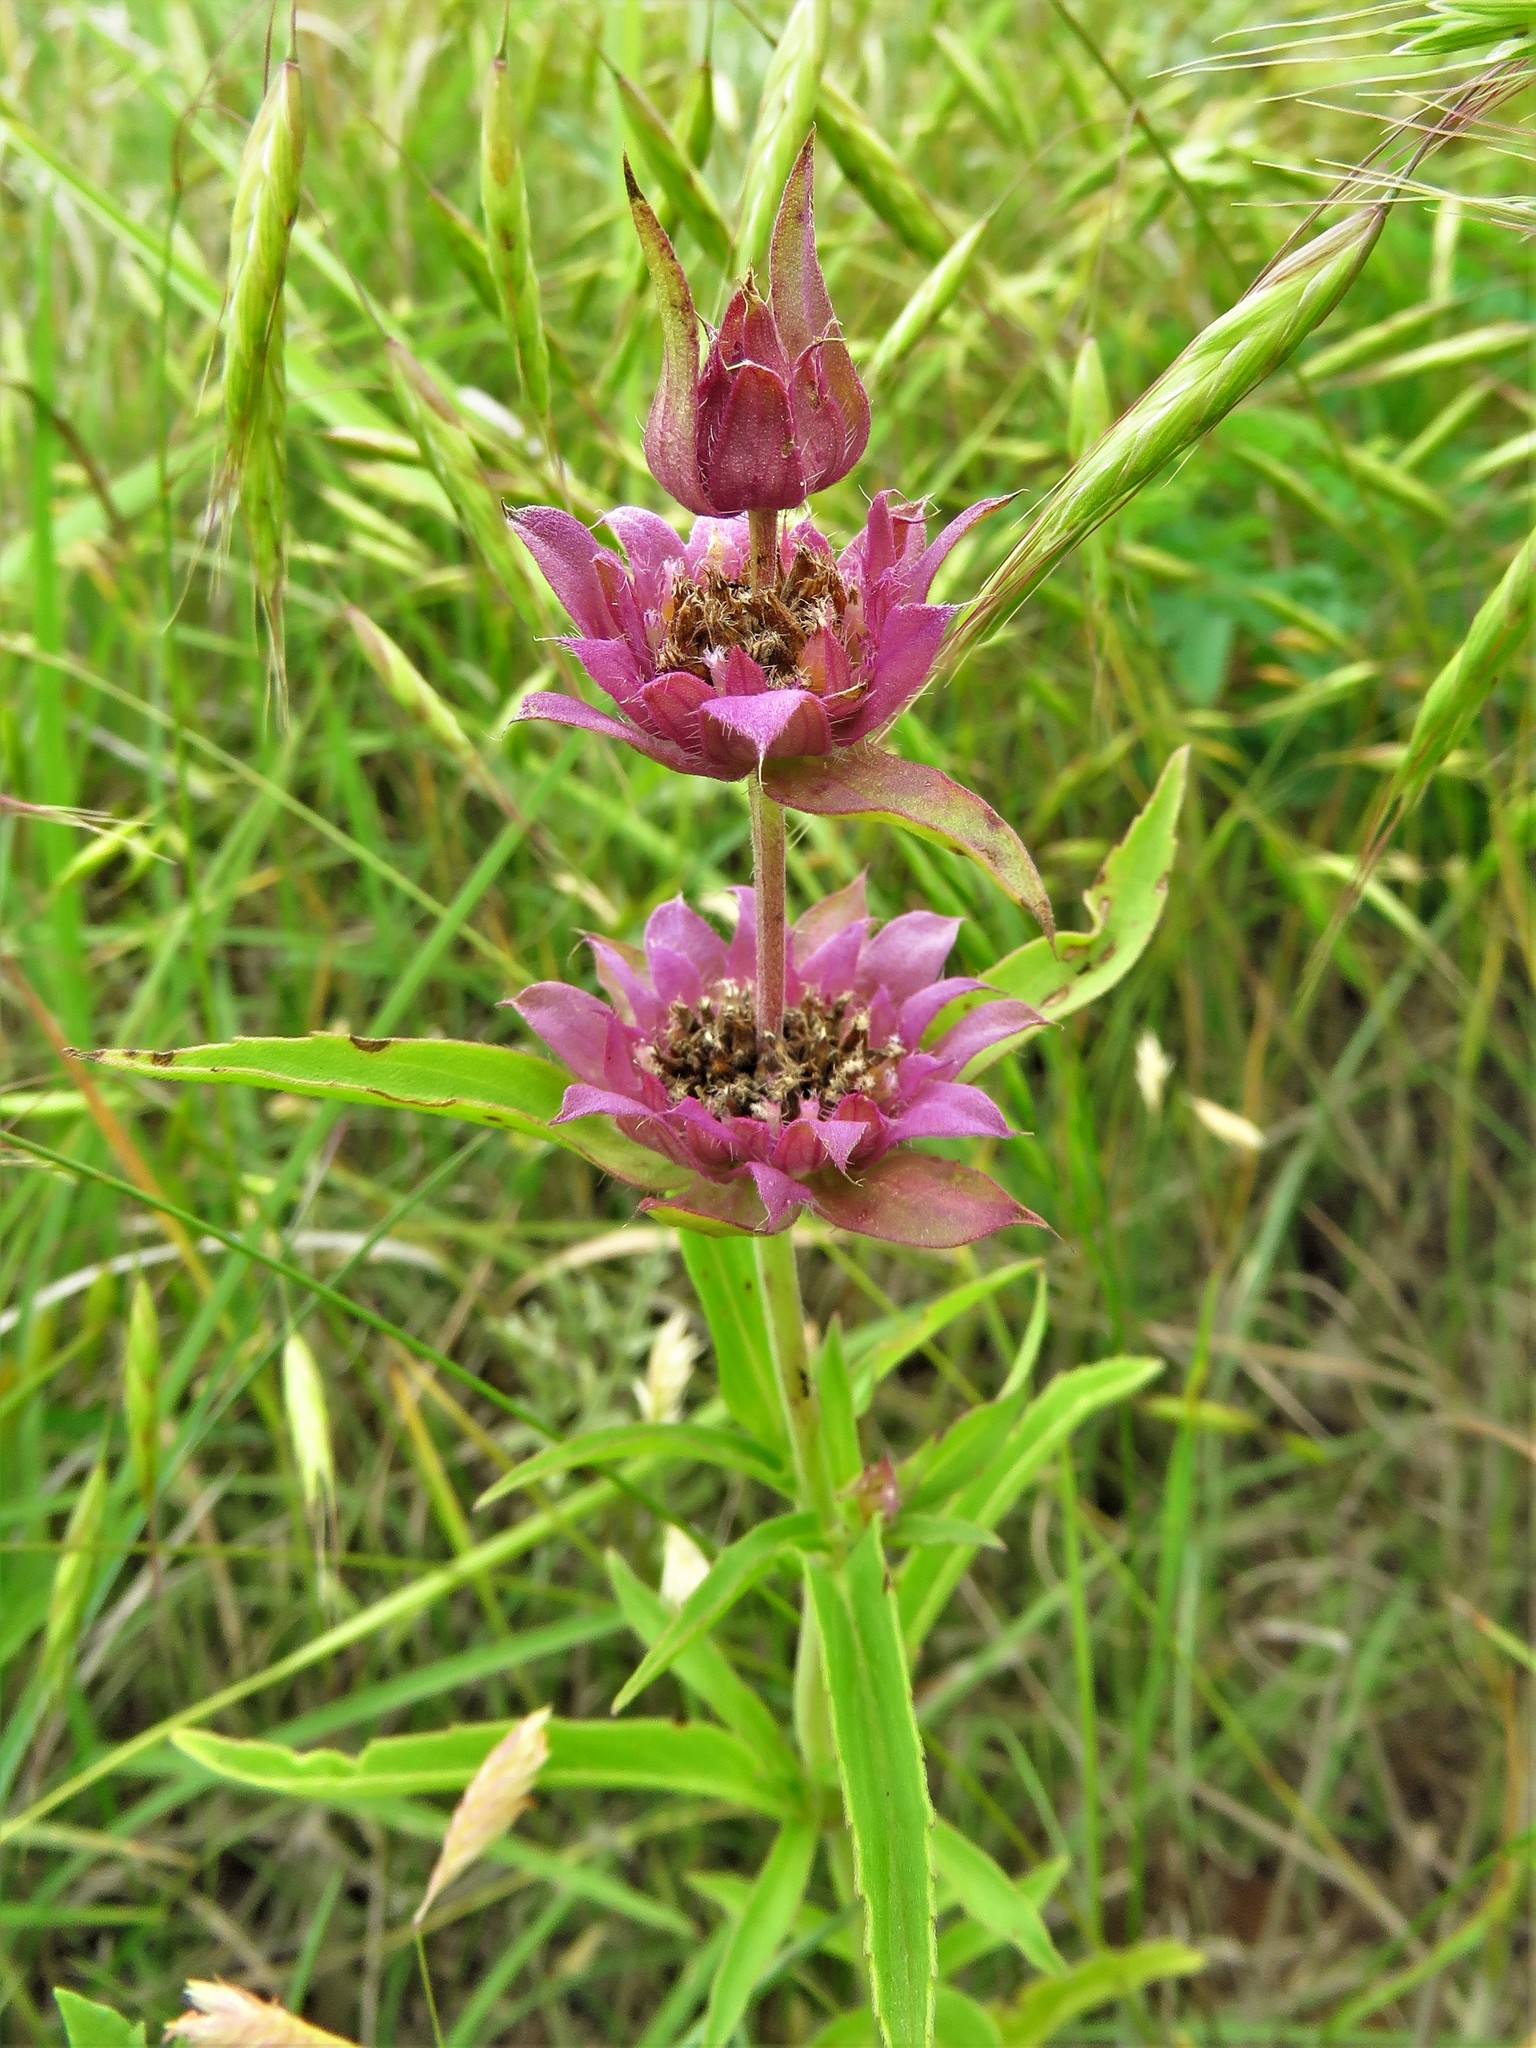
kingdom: Plantae
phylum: Tracheophyta
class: Magnoliopsida
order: Lamiales
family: Lamiaceae
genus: Monarda
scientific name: Monarda citriodora
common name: Lemon beebalm
